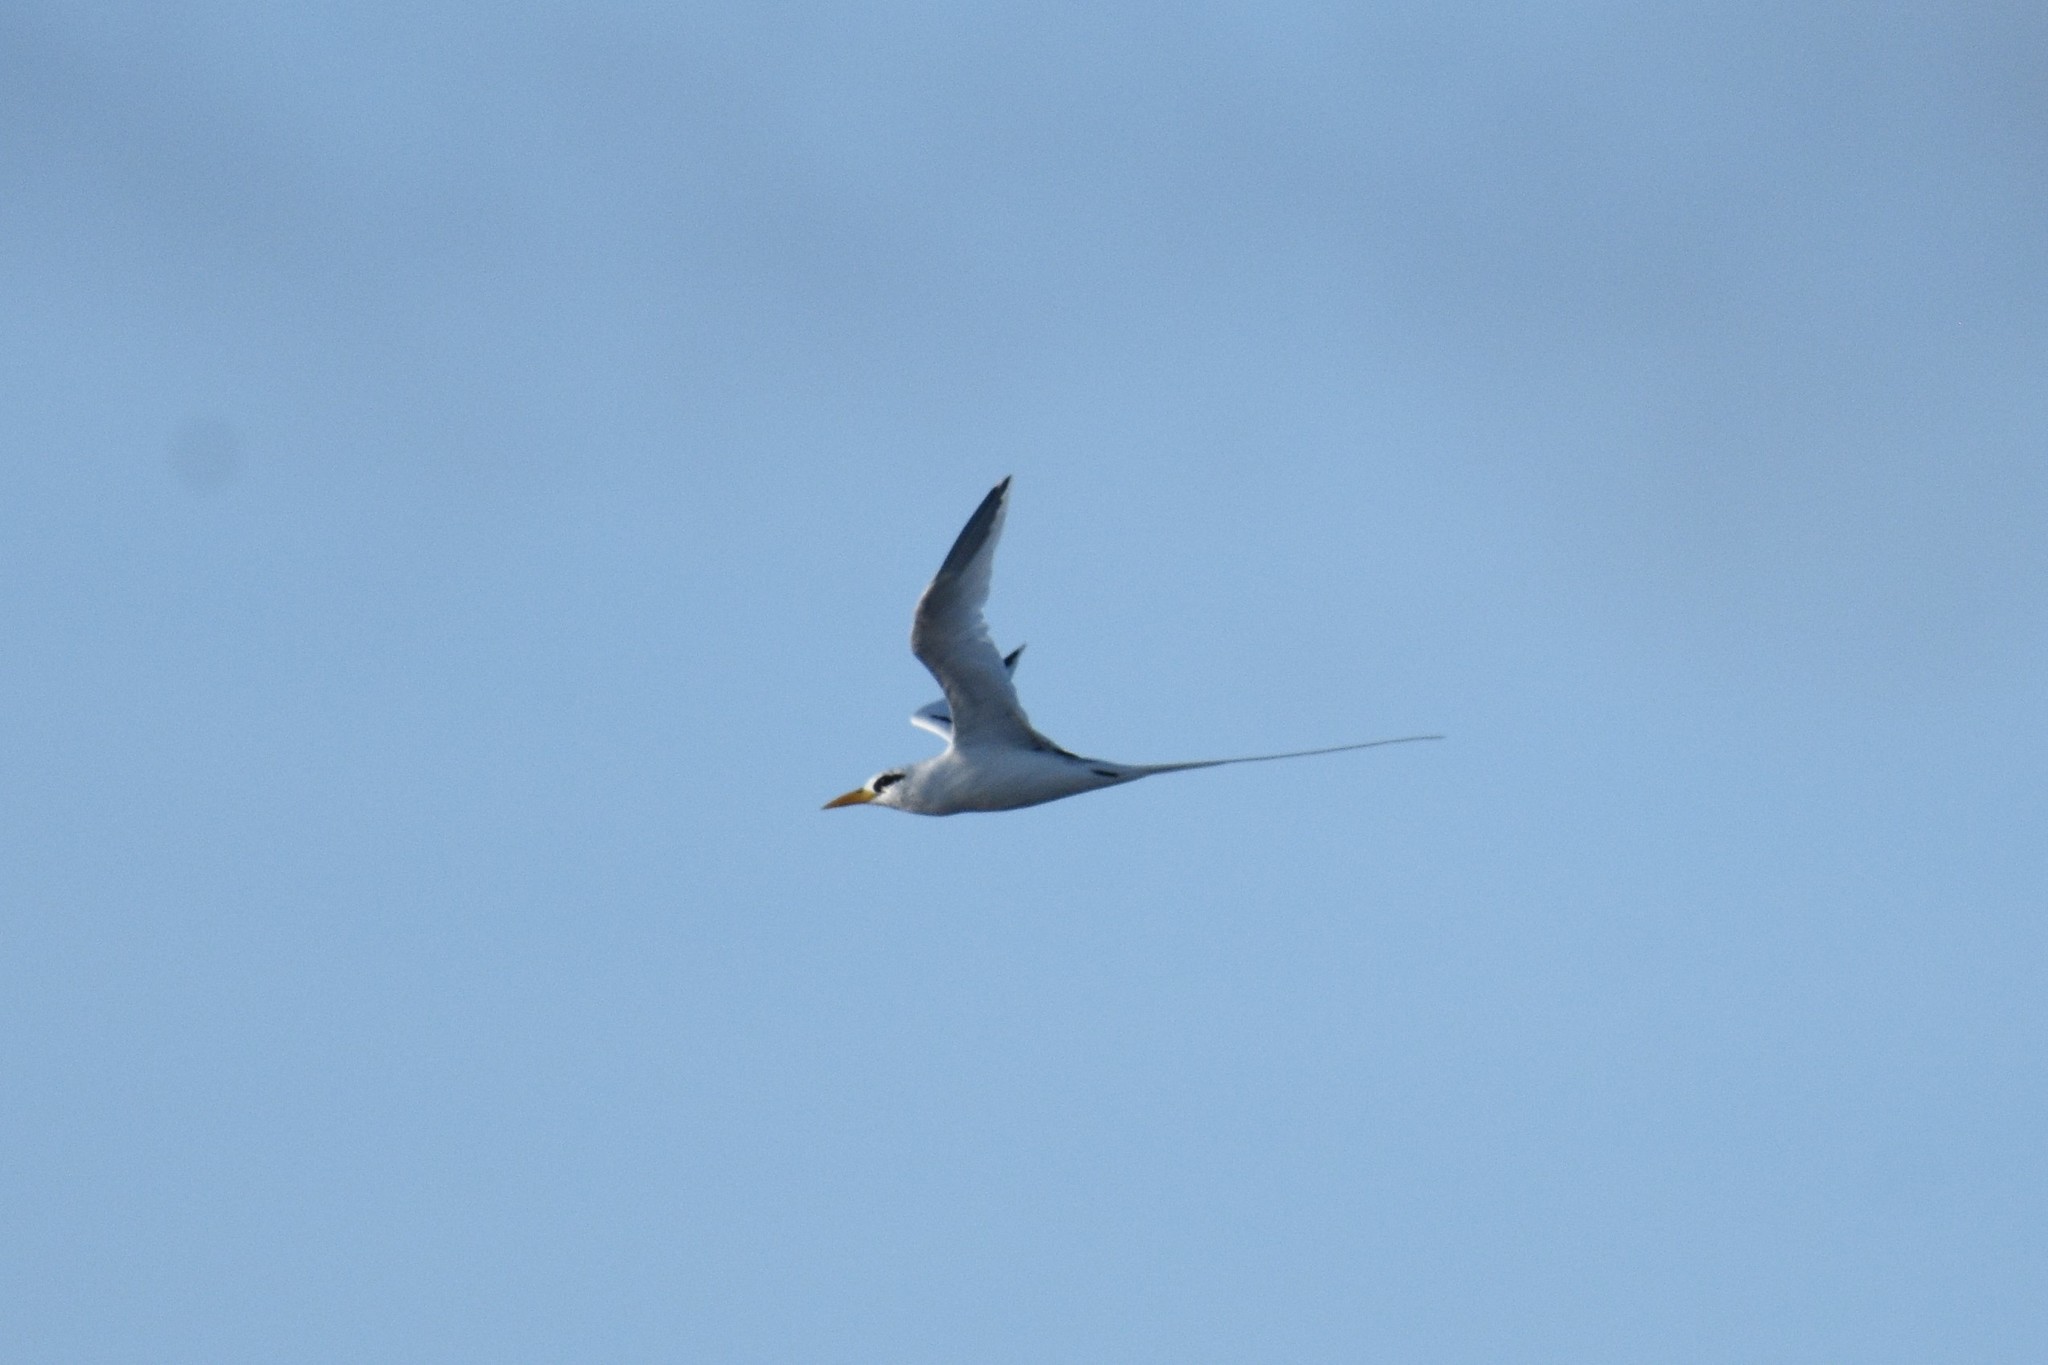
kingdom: Animalia
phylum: Chordata
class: Aves
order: Phaethontiformes
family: Phaethontidae
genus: Phaethon
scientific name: Phaethon lepturus
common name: White-tailed tropicbird
